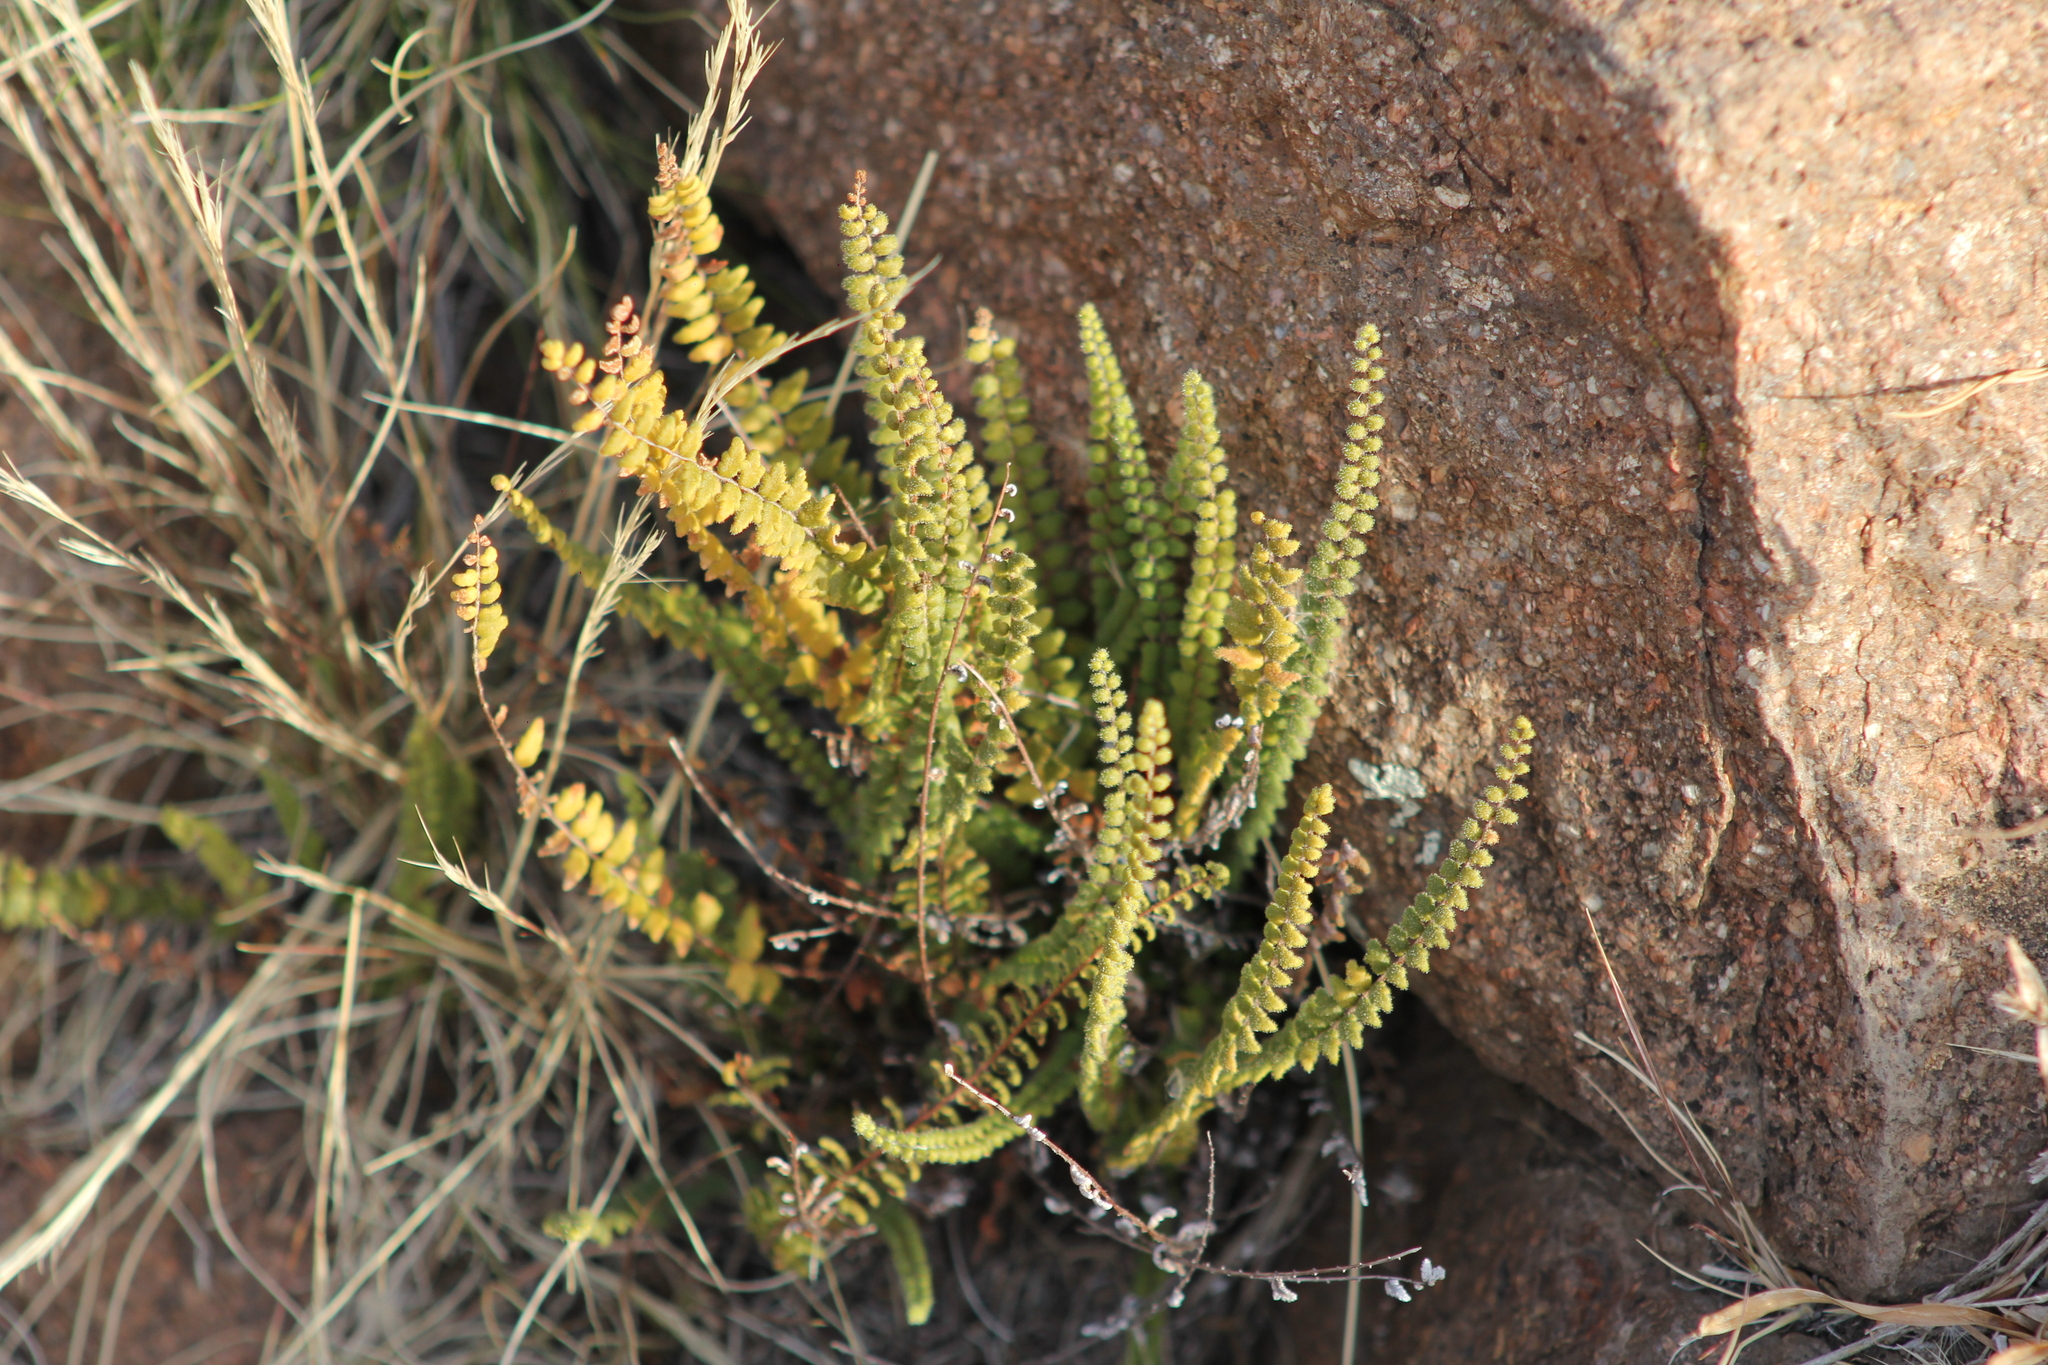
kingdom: Plantae
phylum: Tracheophyta
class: Polypodiopsida
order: Polypodiales
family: Pteridaceae
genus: Myriopteris
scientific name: Myriopteris myriophylla
